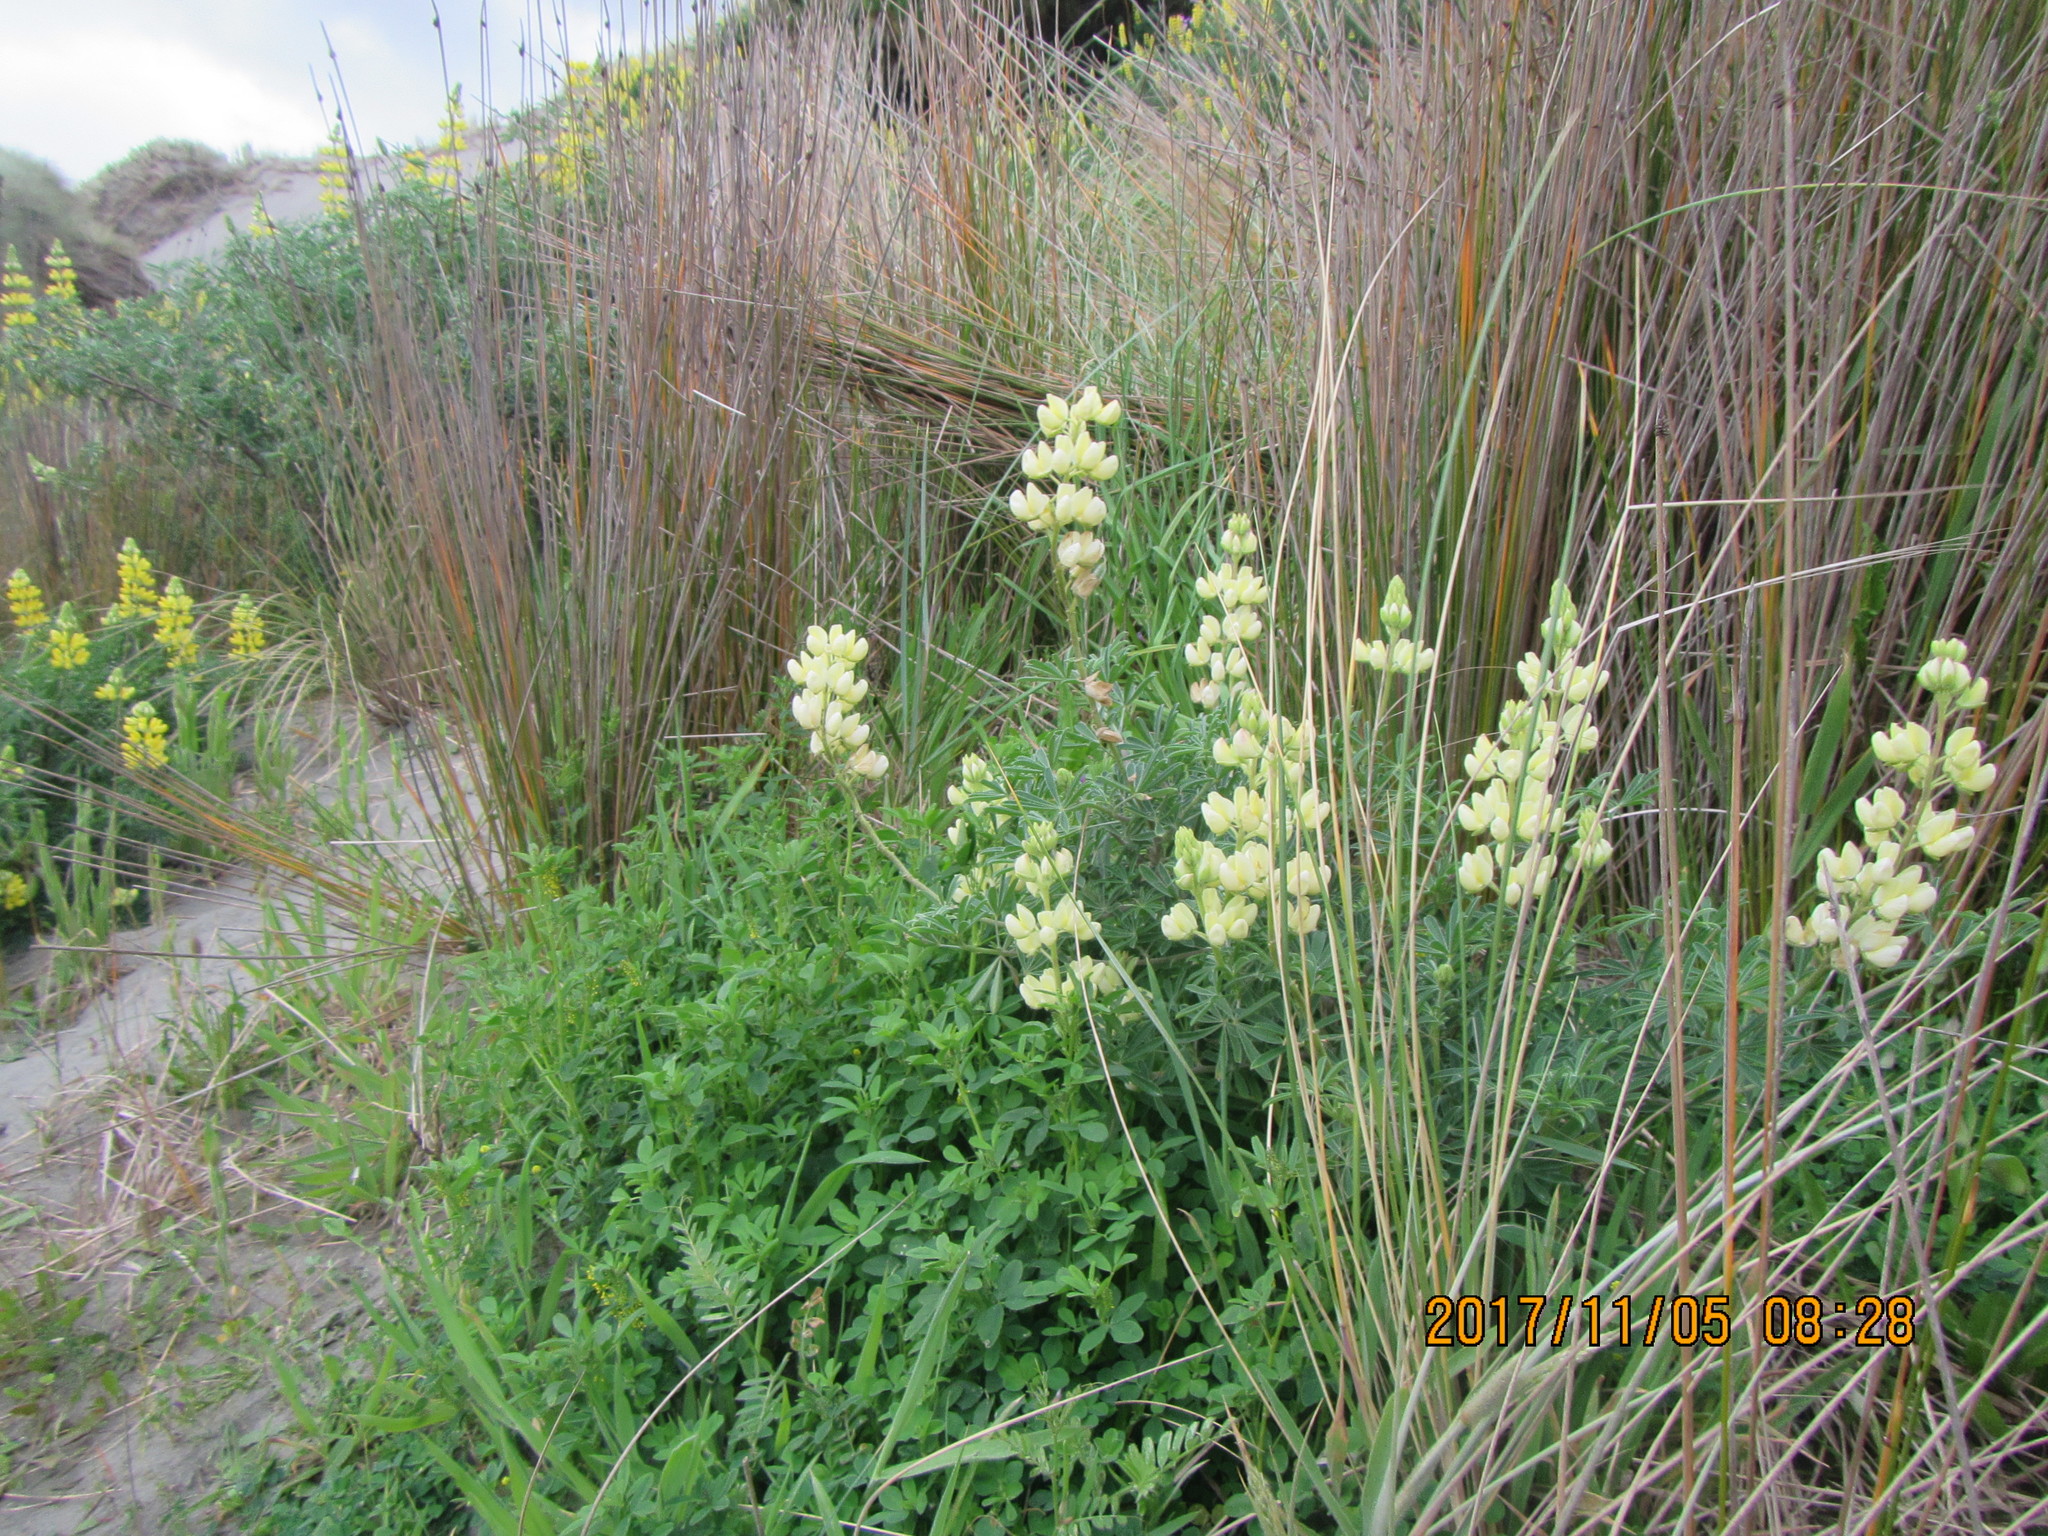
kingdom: Plantae
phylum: Tracheophyta
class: Magnoliopsida
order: Fabales
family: Fabaceae
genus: Lupinus
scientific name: Lupinus arboreus
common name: Yellow bush lupine
